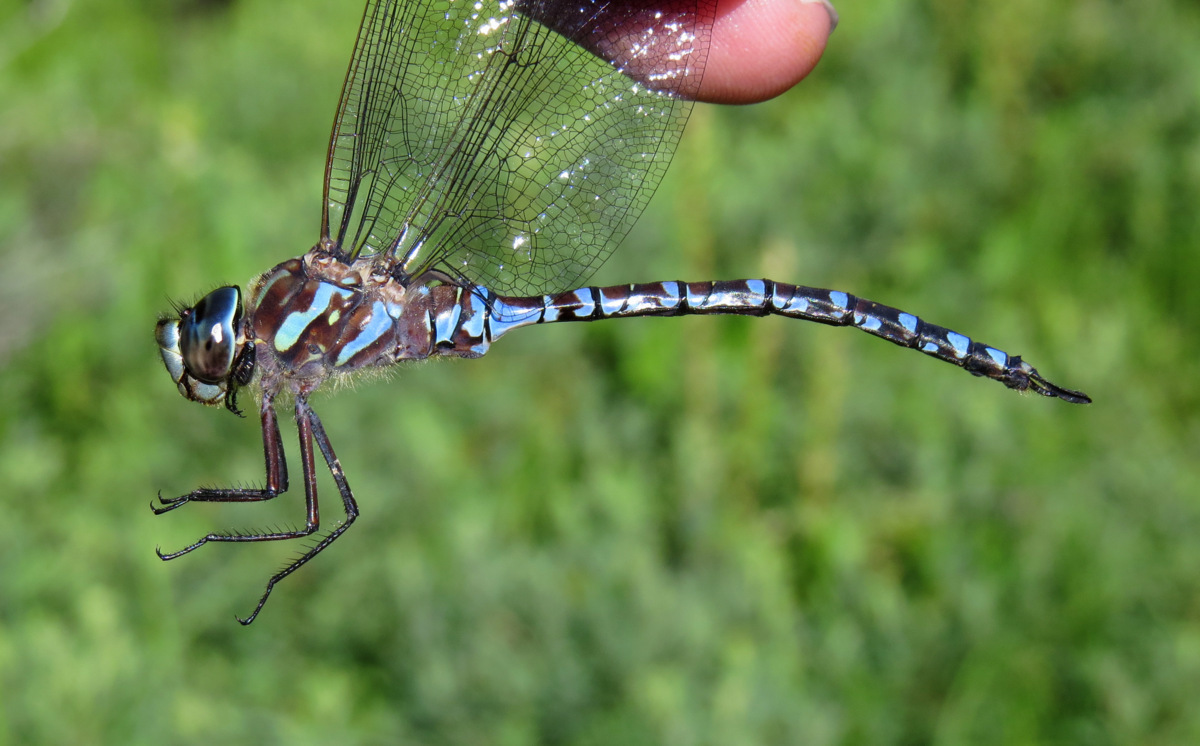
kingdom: Animalia
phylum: Arthropoda
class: Insecta
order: Odonata
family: Aeshnidae
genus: Aeshna
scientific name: Aeshna canadensis
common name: Canada darner
